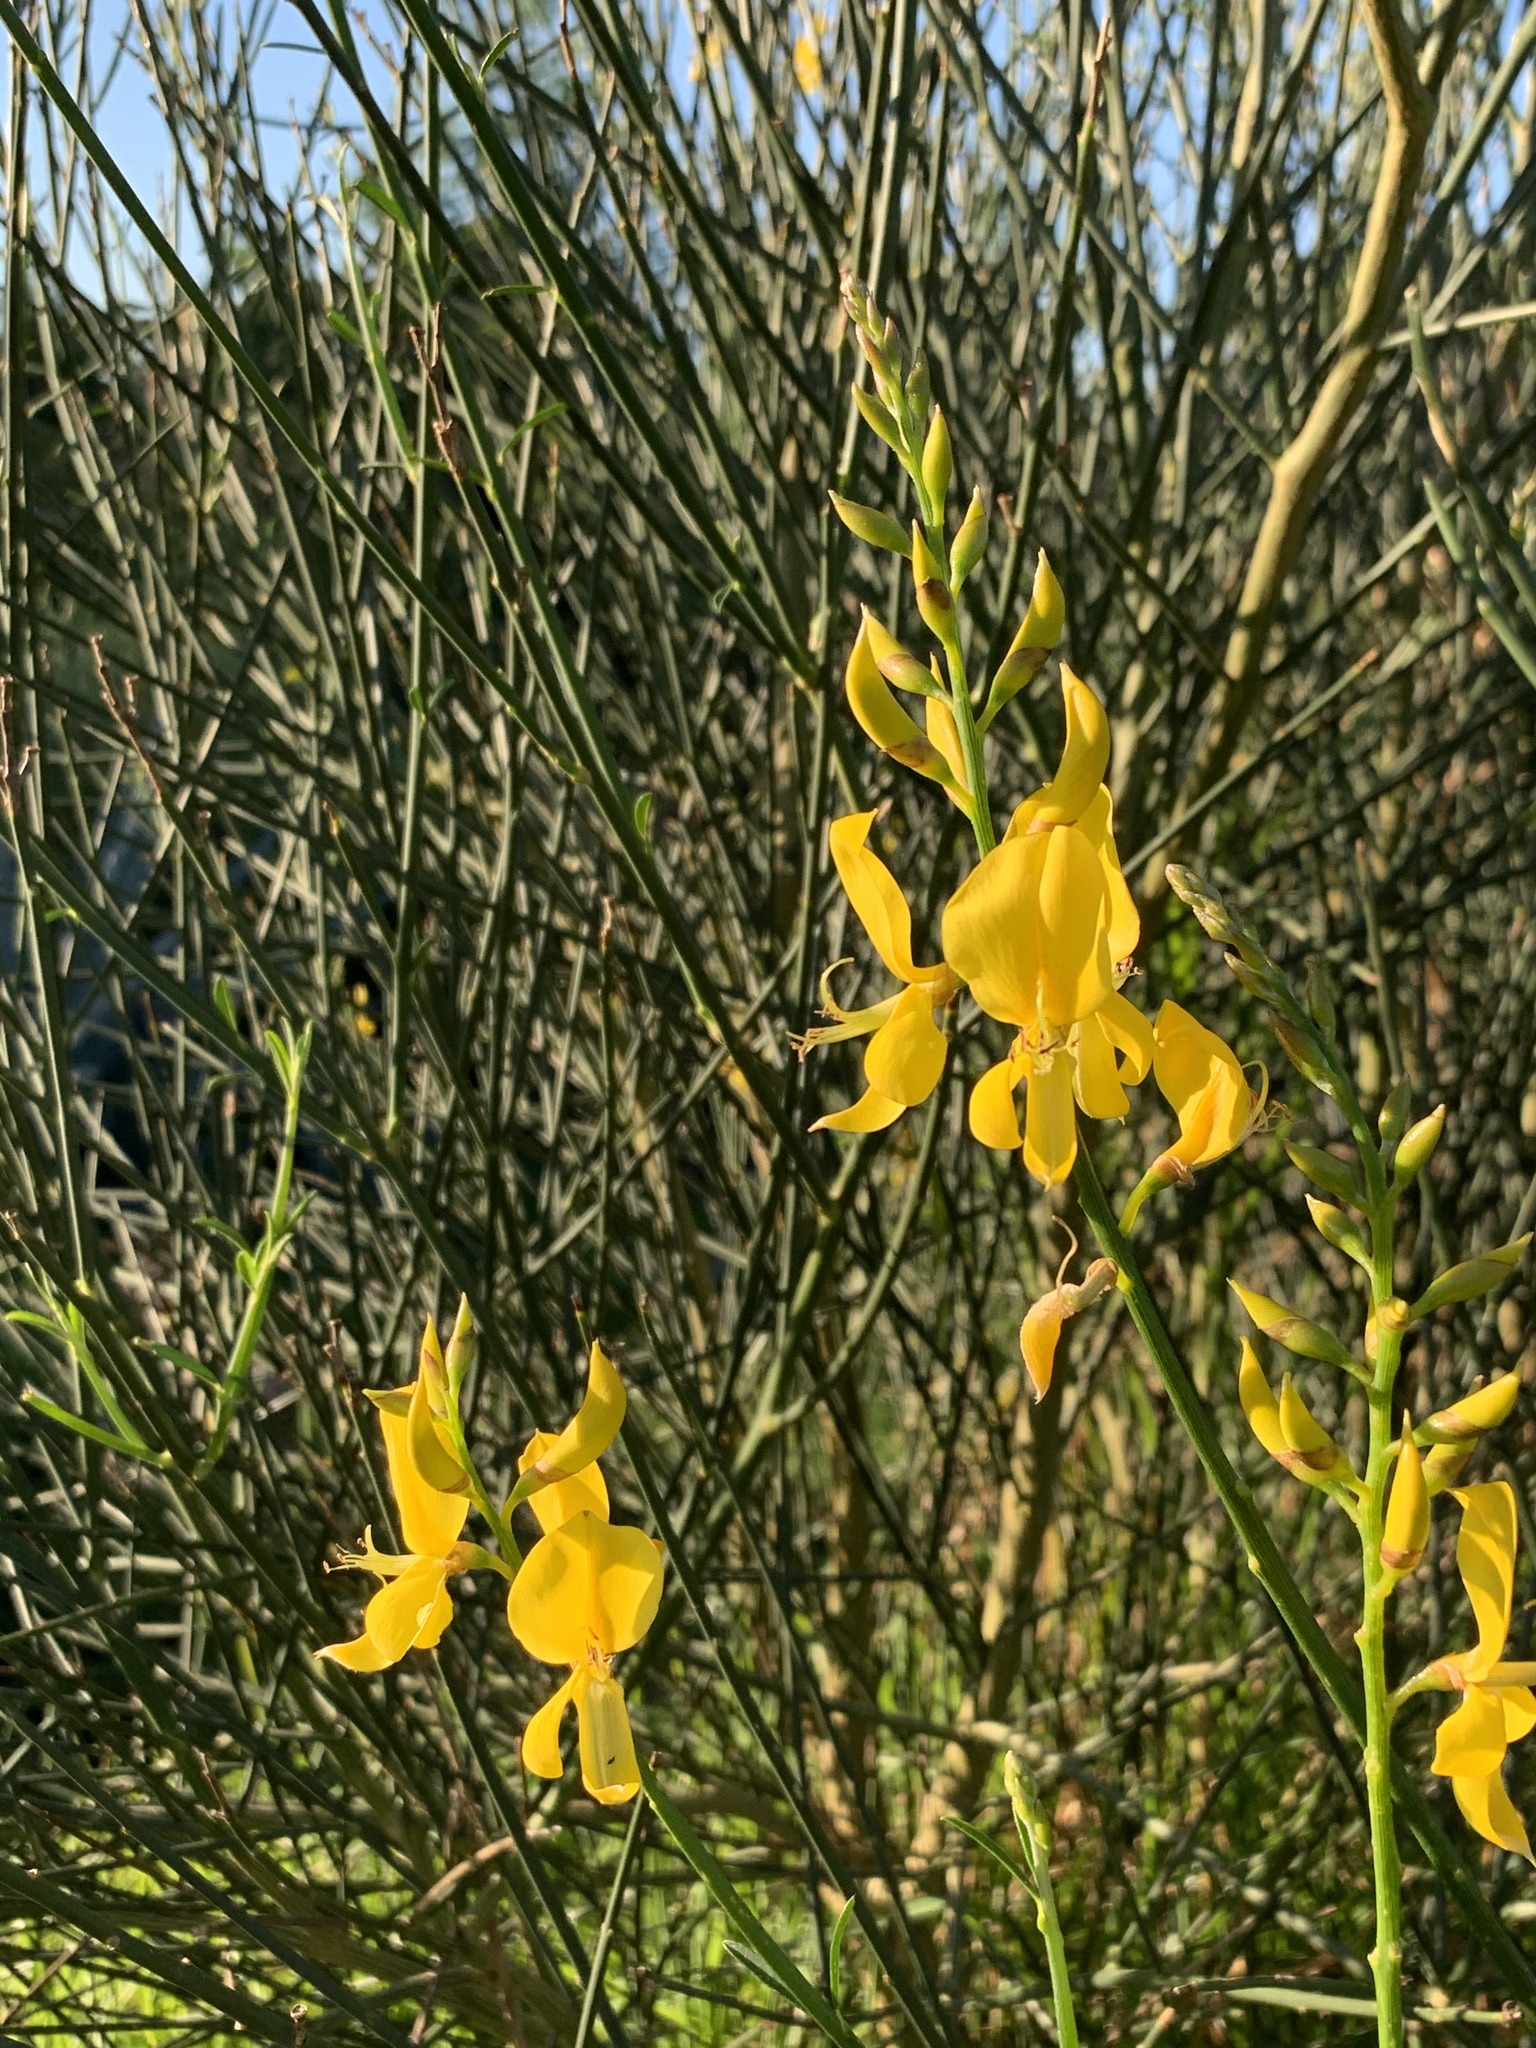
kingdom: Plantae
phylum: Tracheophyta
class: Magnoliopsida
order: Fabales
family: Fabaceae
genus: Spartium
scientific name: Spartium junceum
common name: Spanish broom
